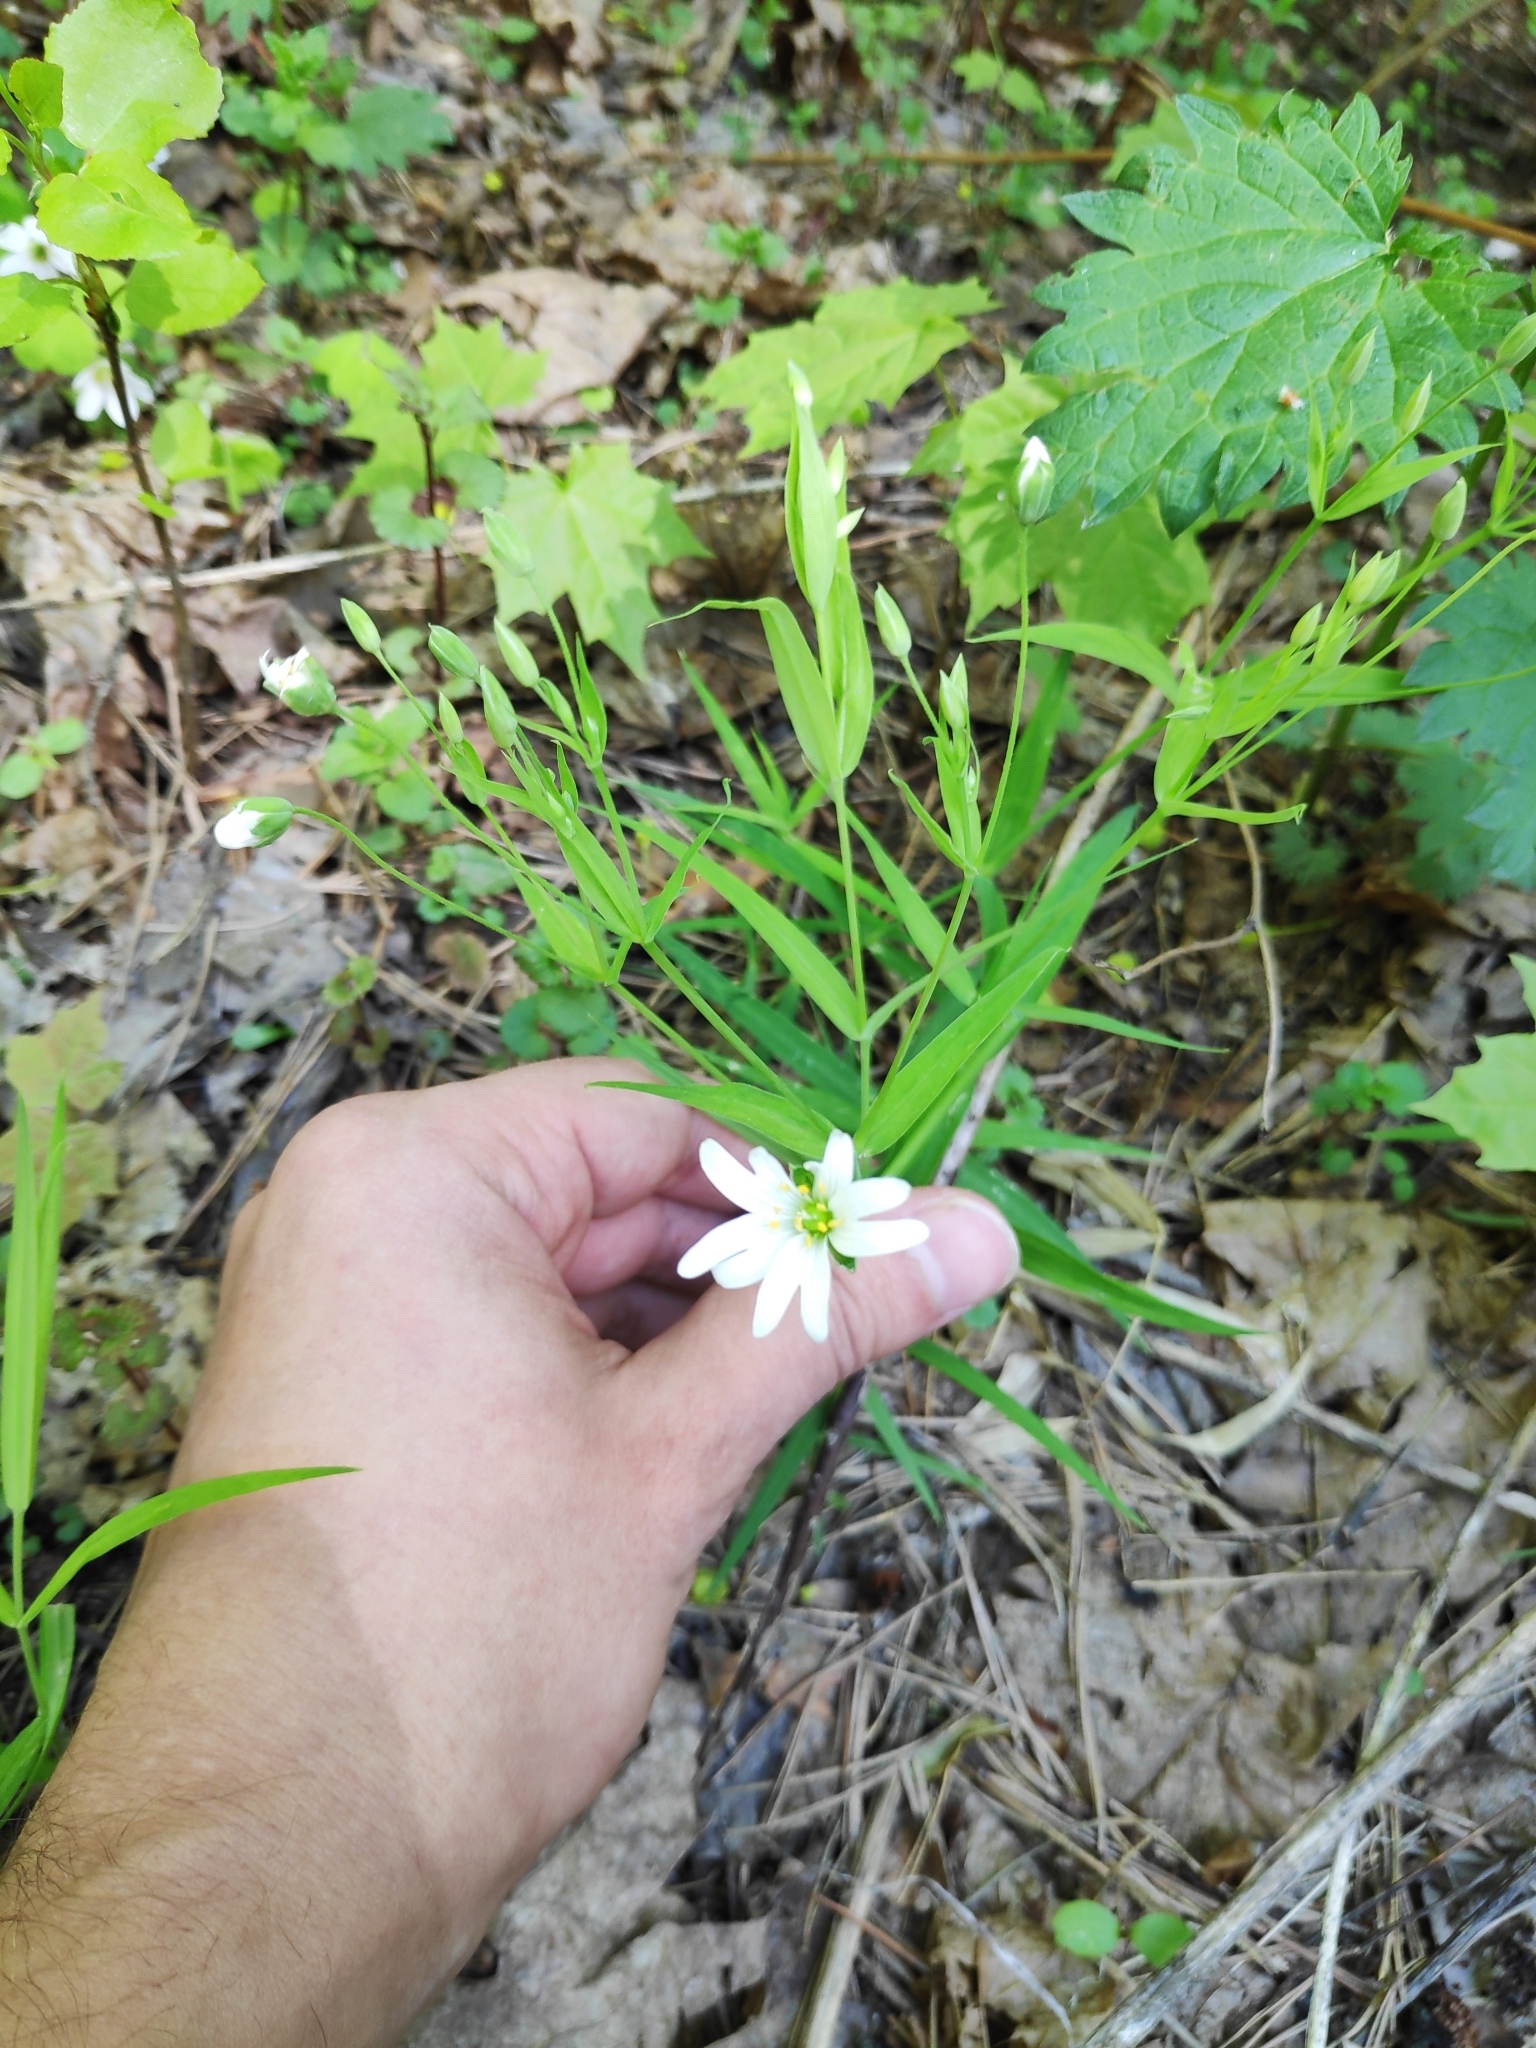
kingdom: Plantae
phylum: Tracheophyta
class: Magnoliopsida
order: Caryophyllales
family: Caryophyllaceae
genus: Rabelera
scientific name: Rabelera holostea
